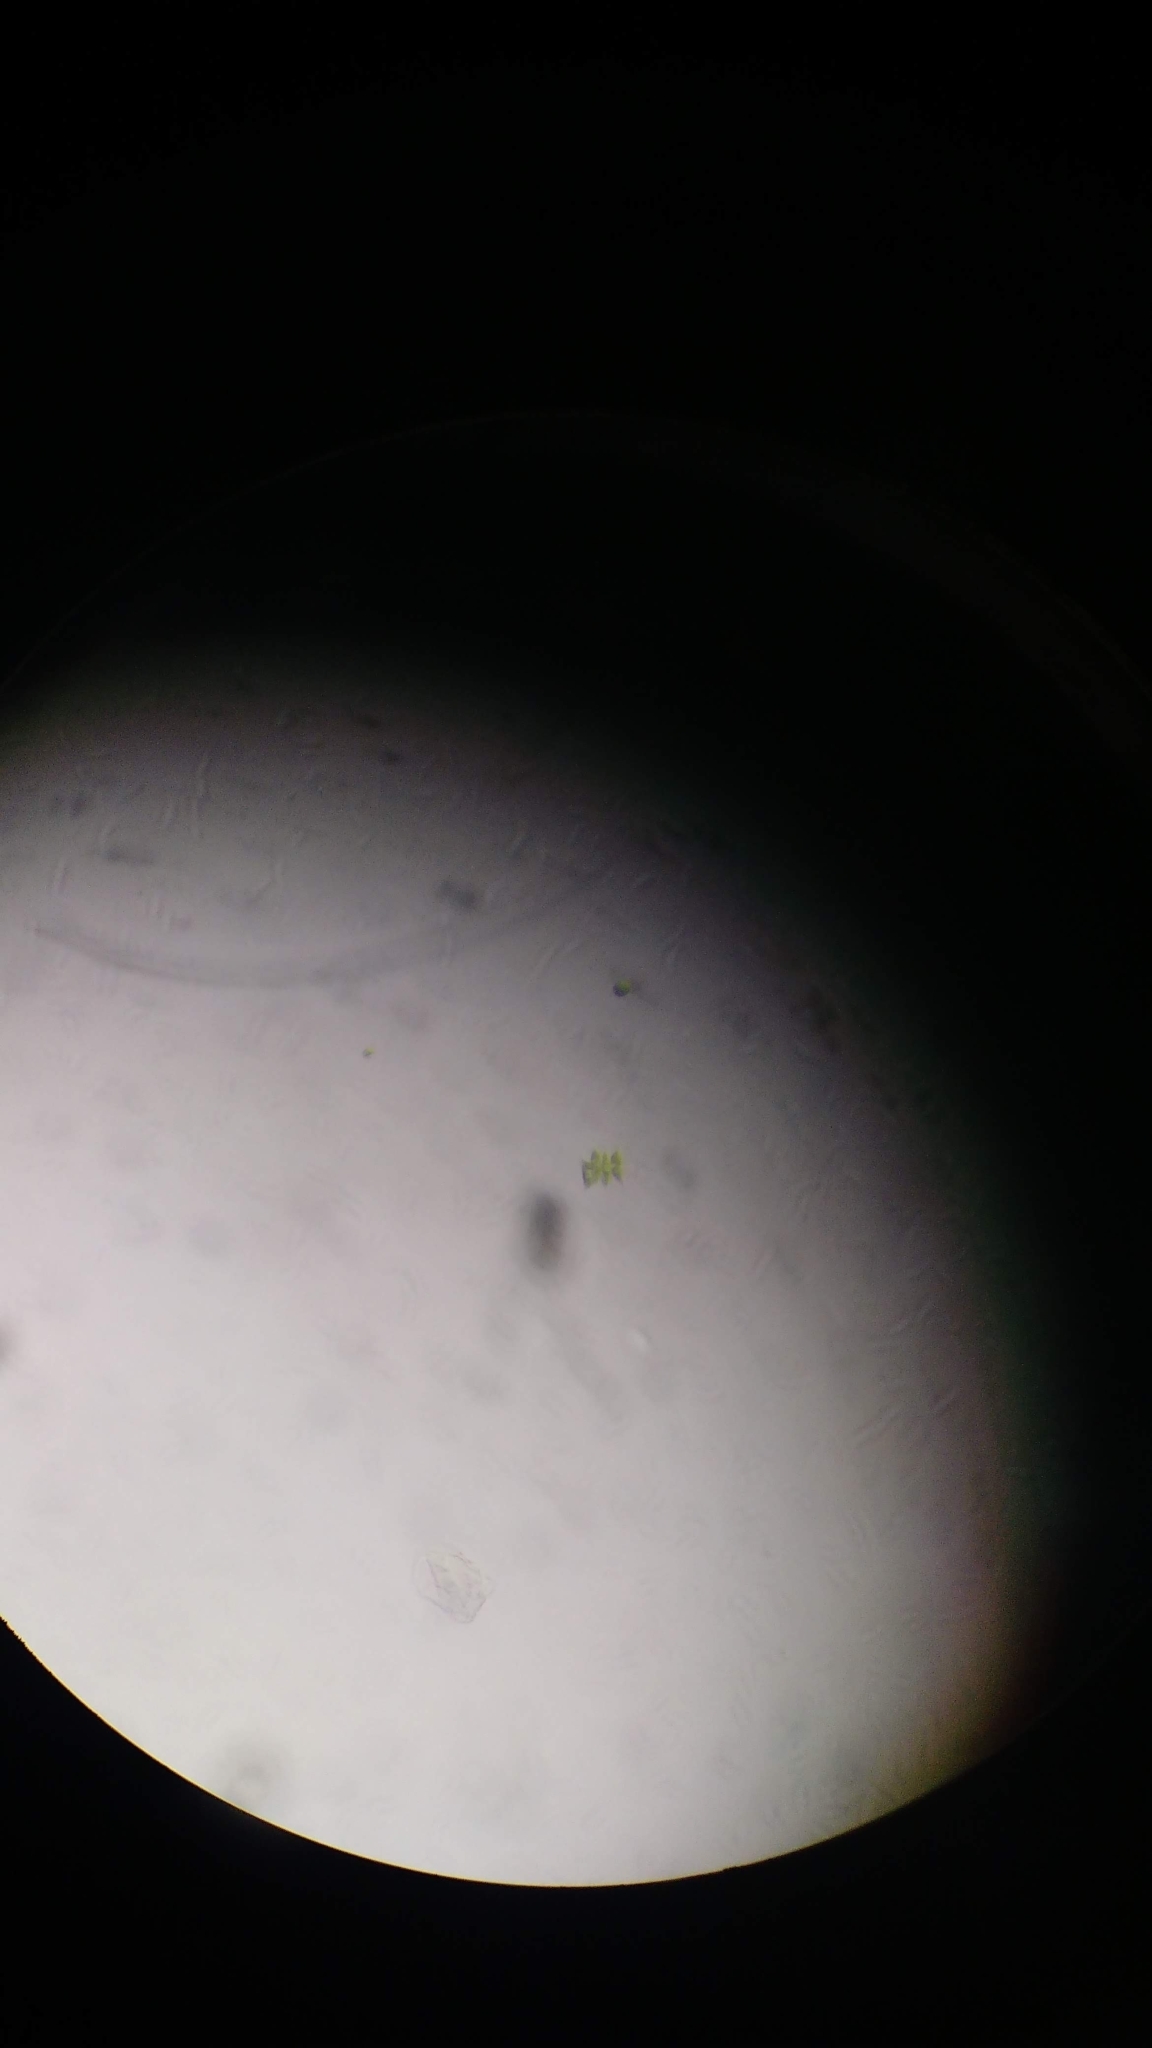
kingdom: Plantae
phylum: Chlorophyta
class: Chlorophyceae
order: Sphaeropleales
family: Scenedesmaceae
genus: Tetradesmus
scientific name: Tetradesmus obliquus
